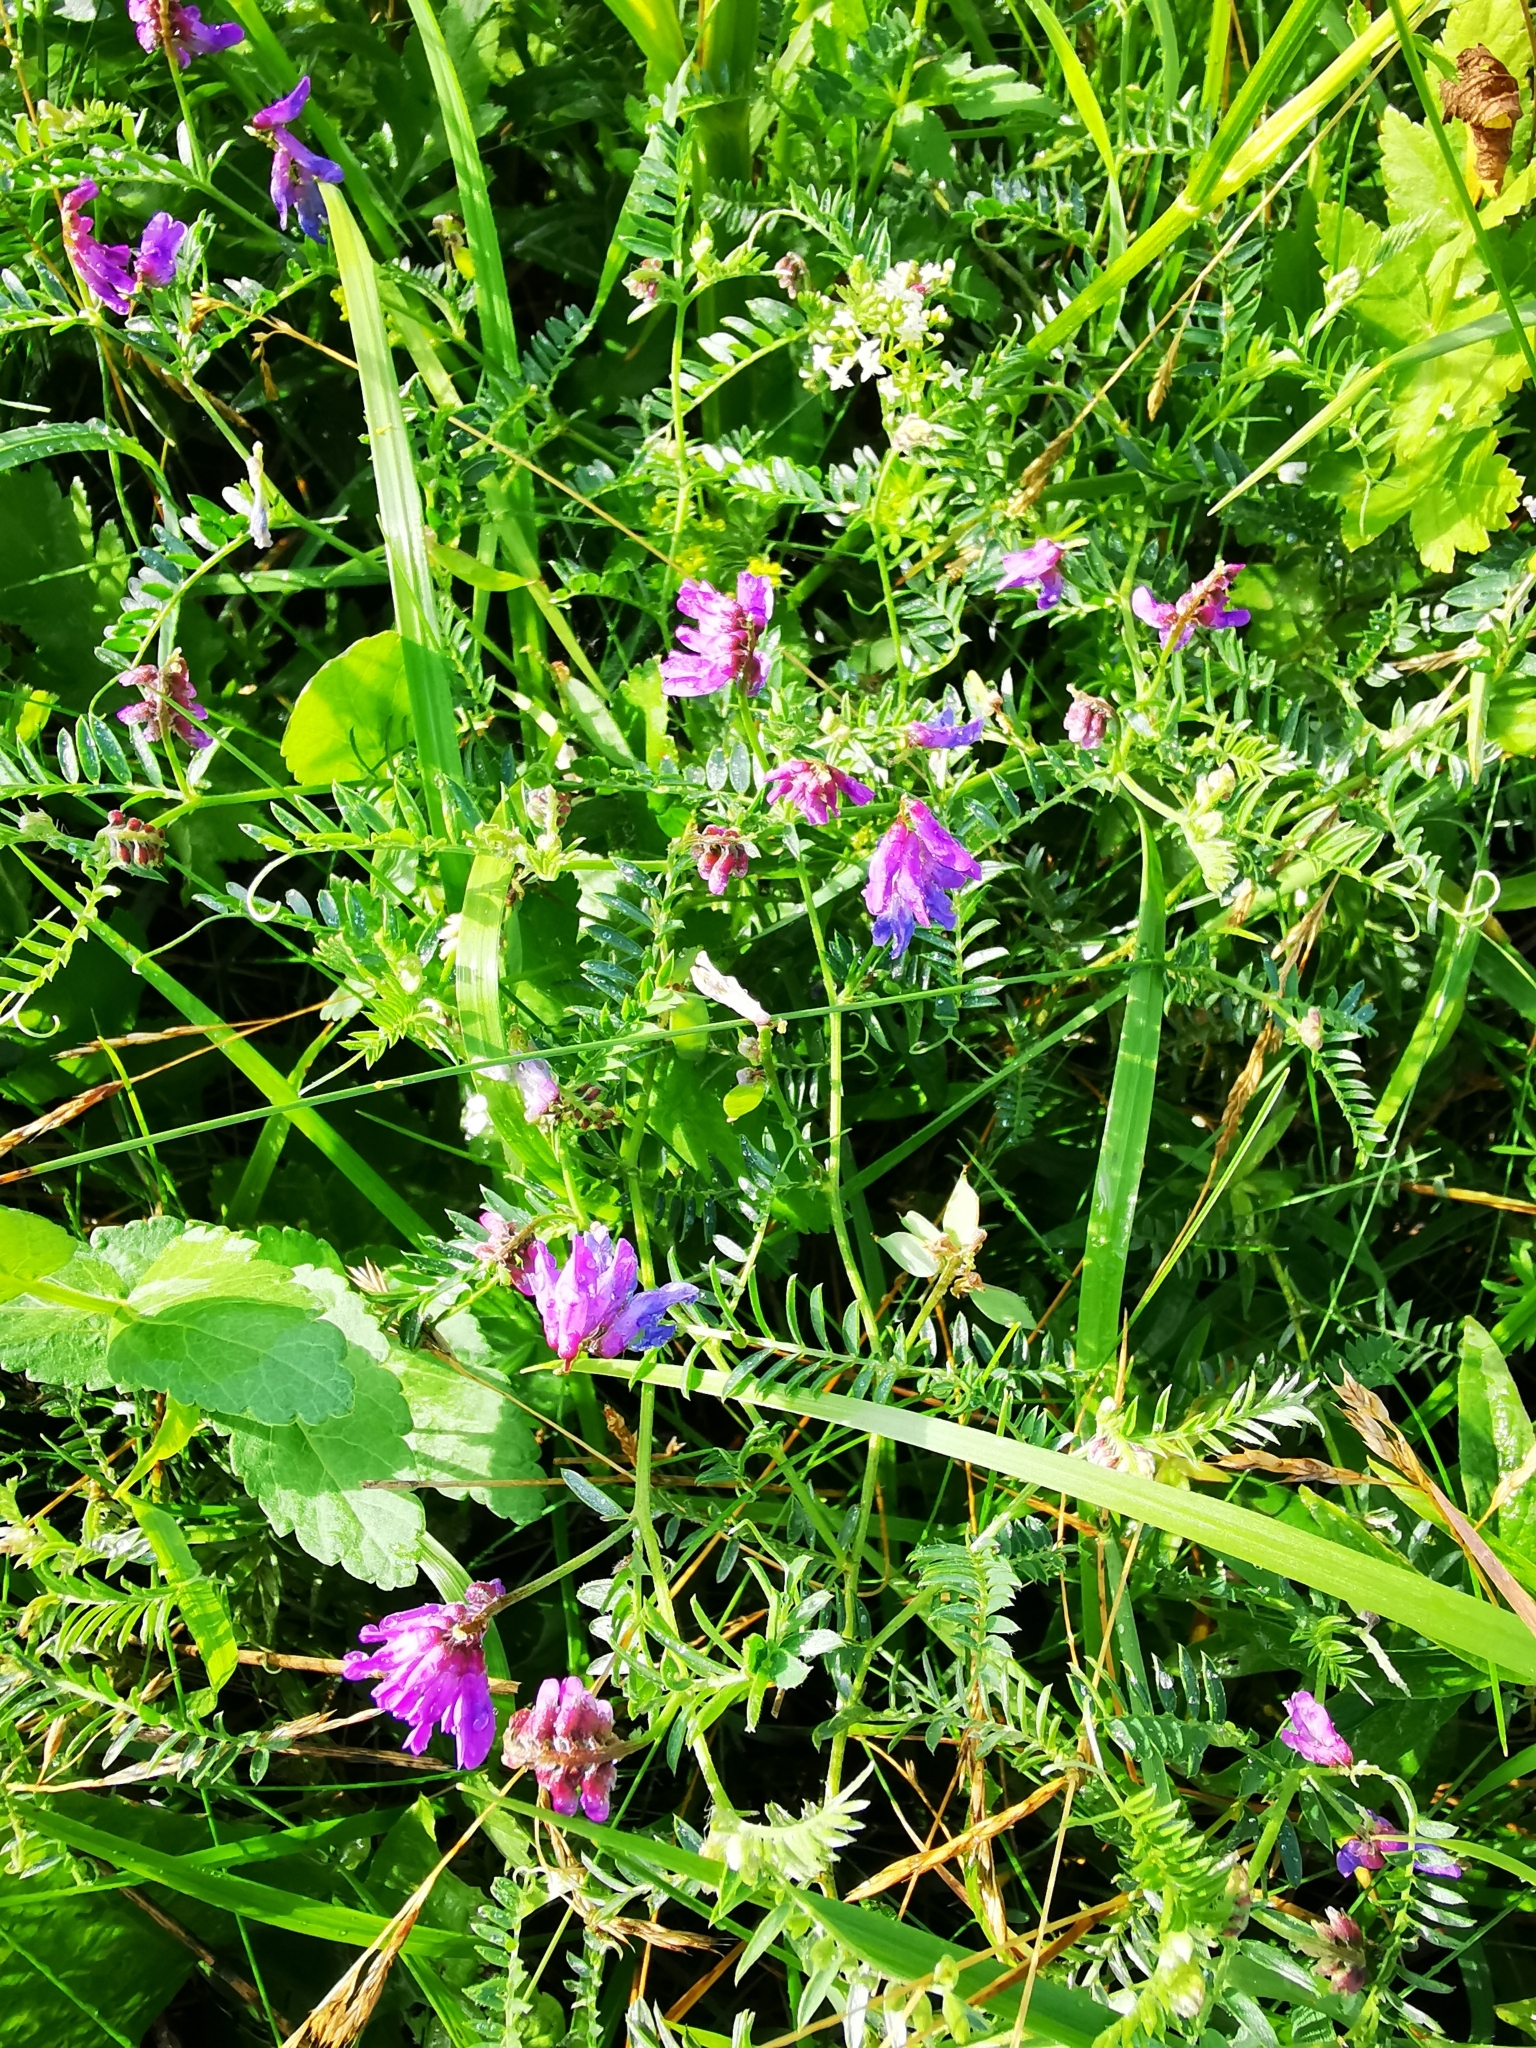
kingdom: Plantae
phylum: Tracheophyta
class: Magnoliopsida
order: Fabales
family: Fabaceae
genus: Vicia
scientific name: Vicia cracca
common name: Bird vetch
